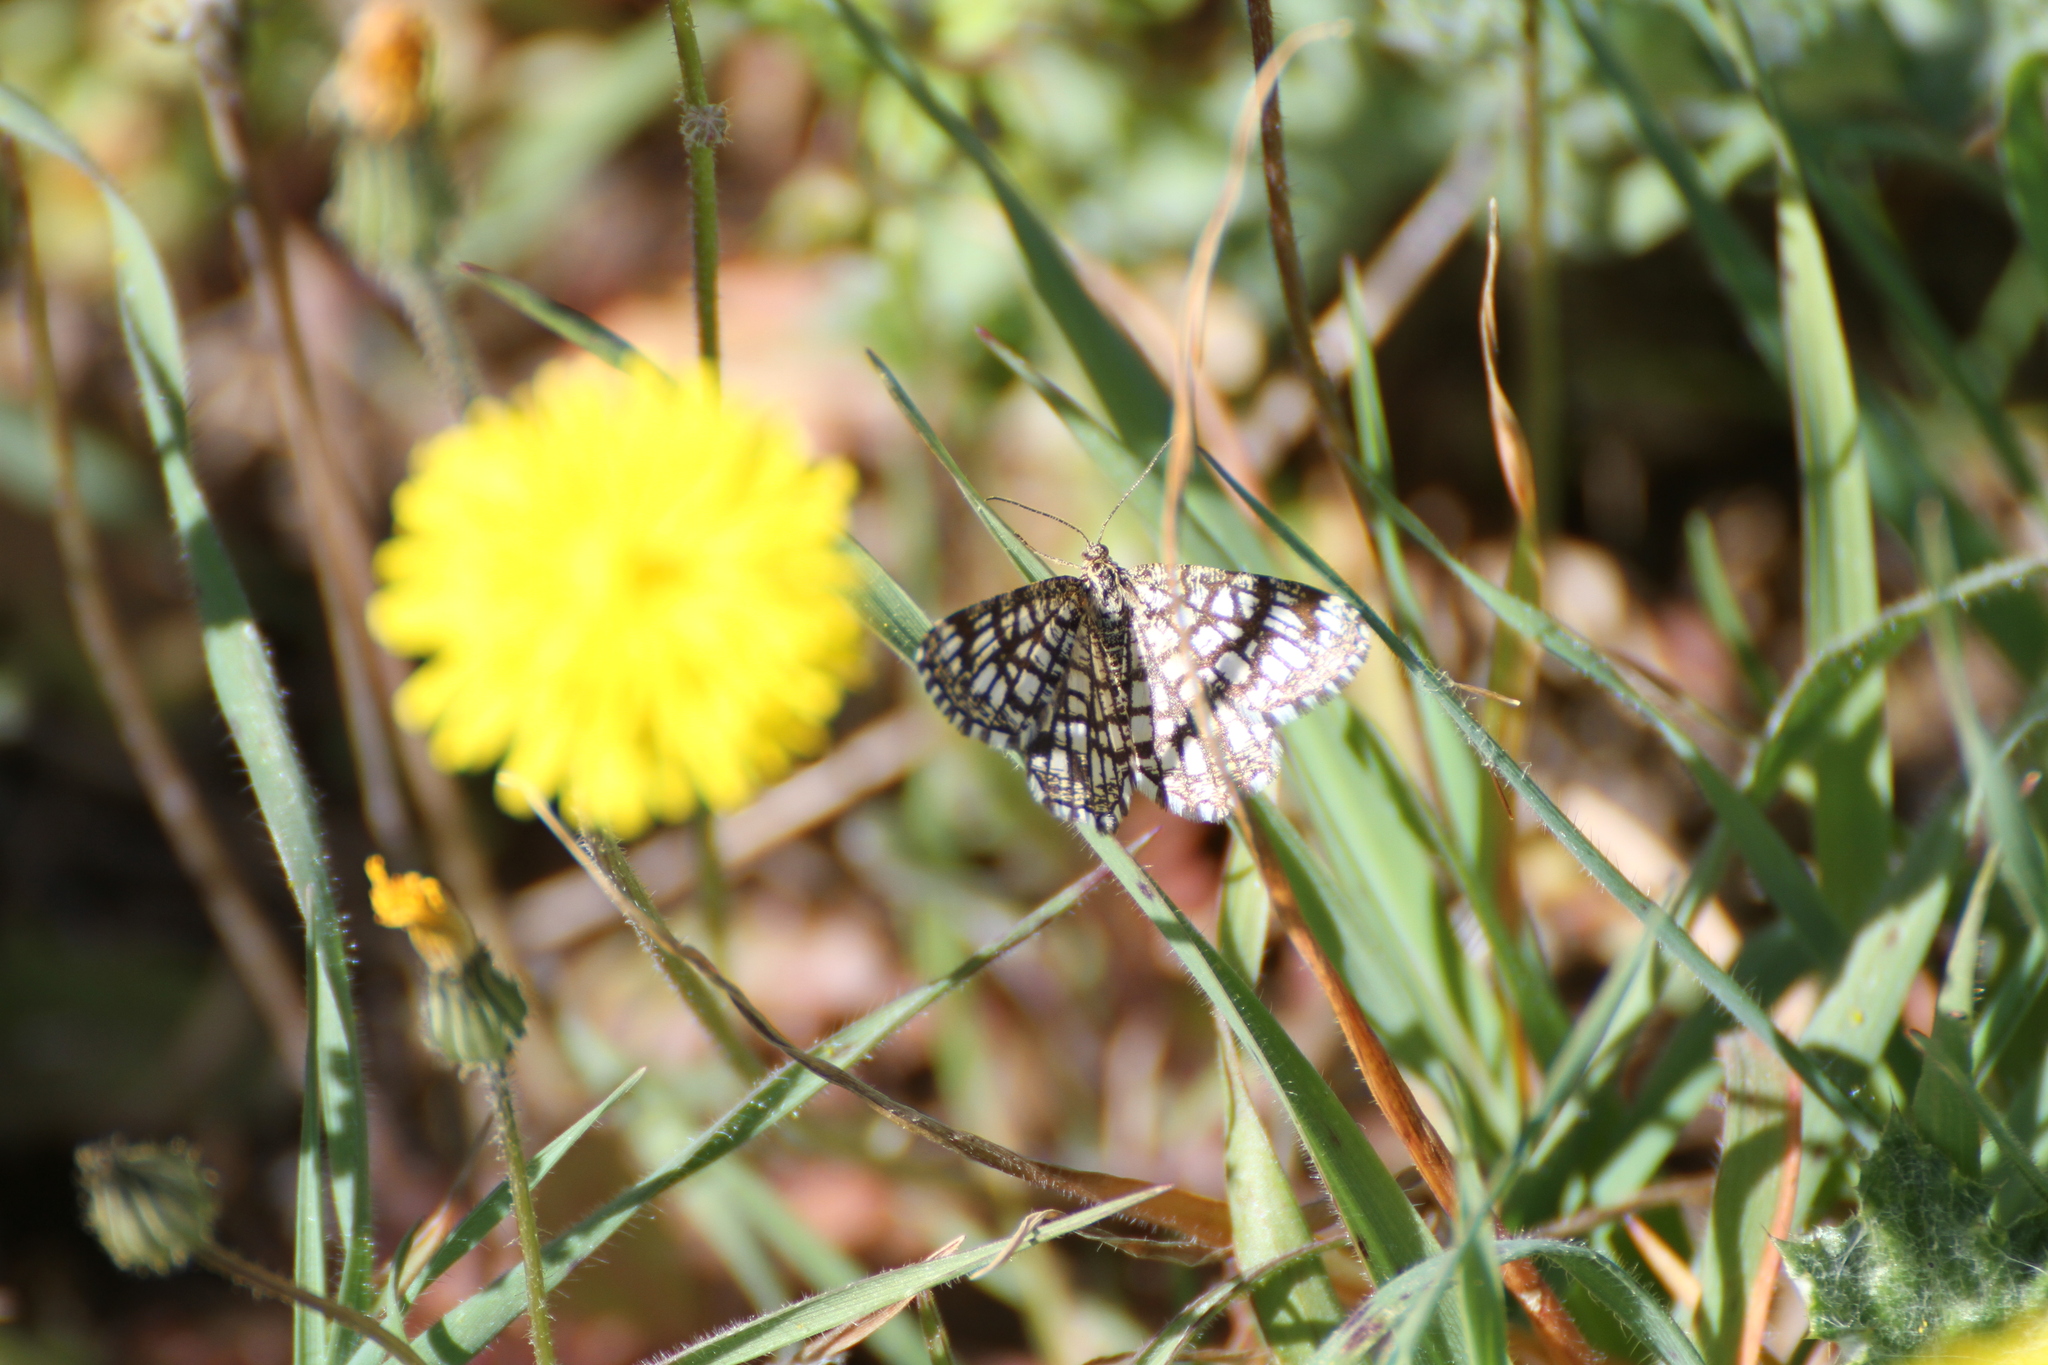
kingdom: Animalia
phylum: Arthropoda
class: Insecta
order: Lepidoptera
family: Geometridae
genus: Chiasmia
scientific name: Chiasmia clathrata
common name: Latticed heath
